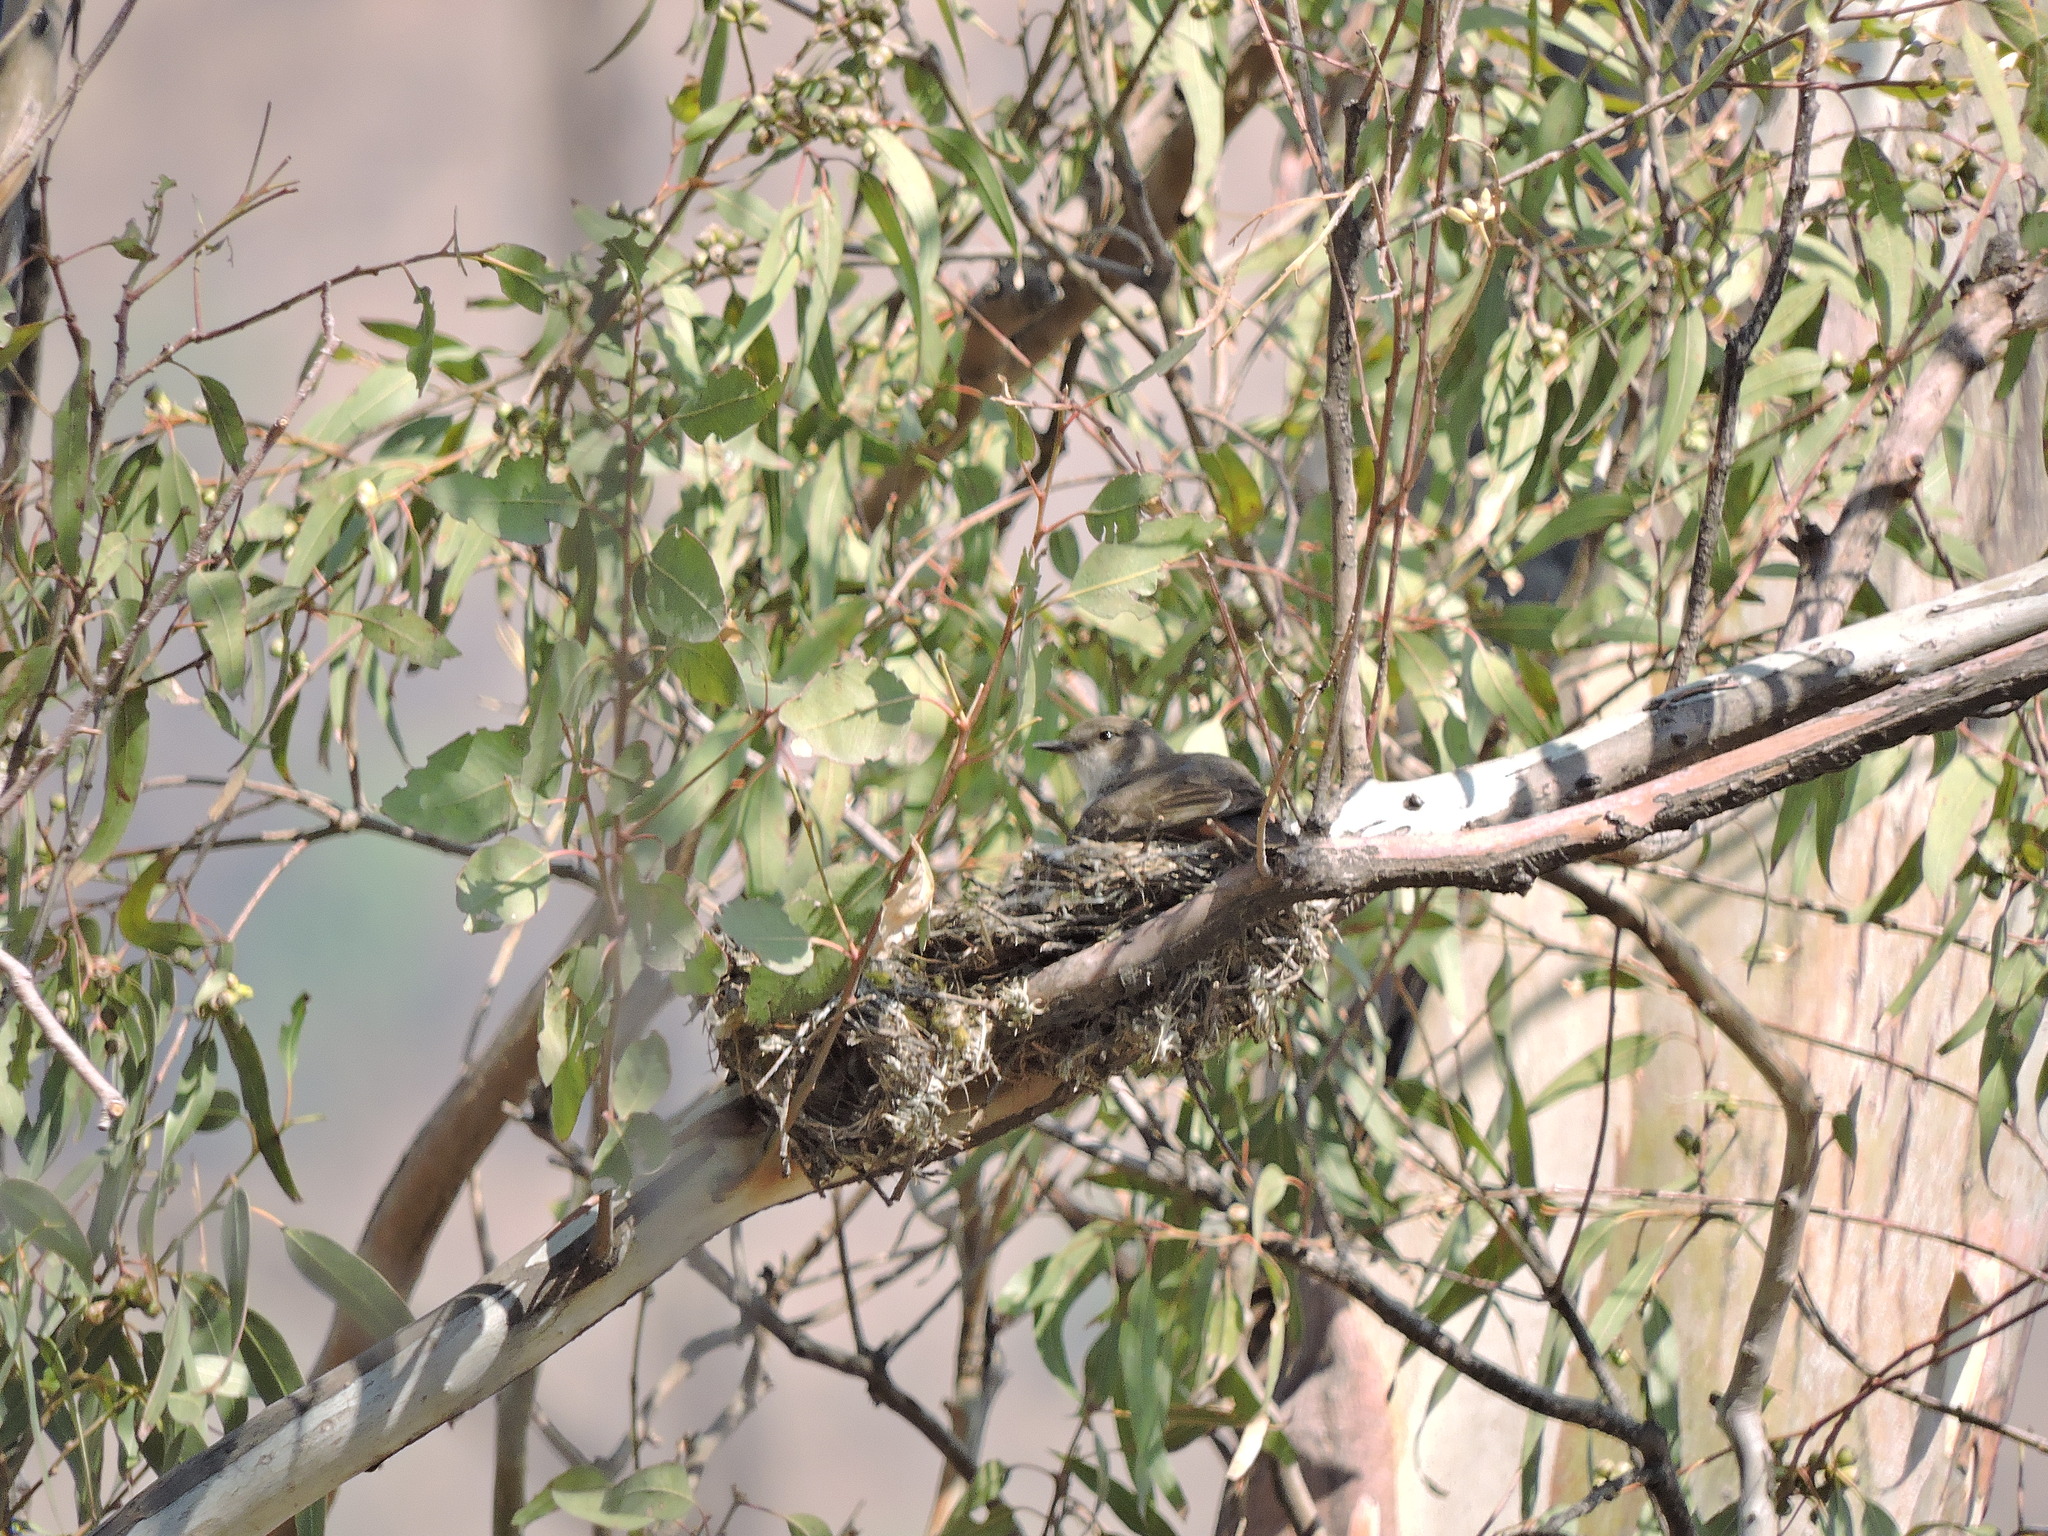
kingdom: Animalia
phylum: Chordata
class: Aves
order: Passeriformes
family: Tyrannidae
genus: Pyrocephalus
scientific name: Pyrocephalus rubinus
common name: Vermilion flycatcher
